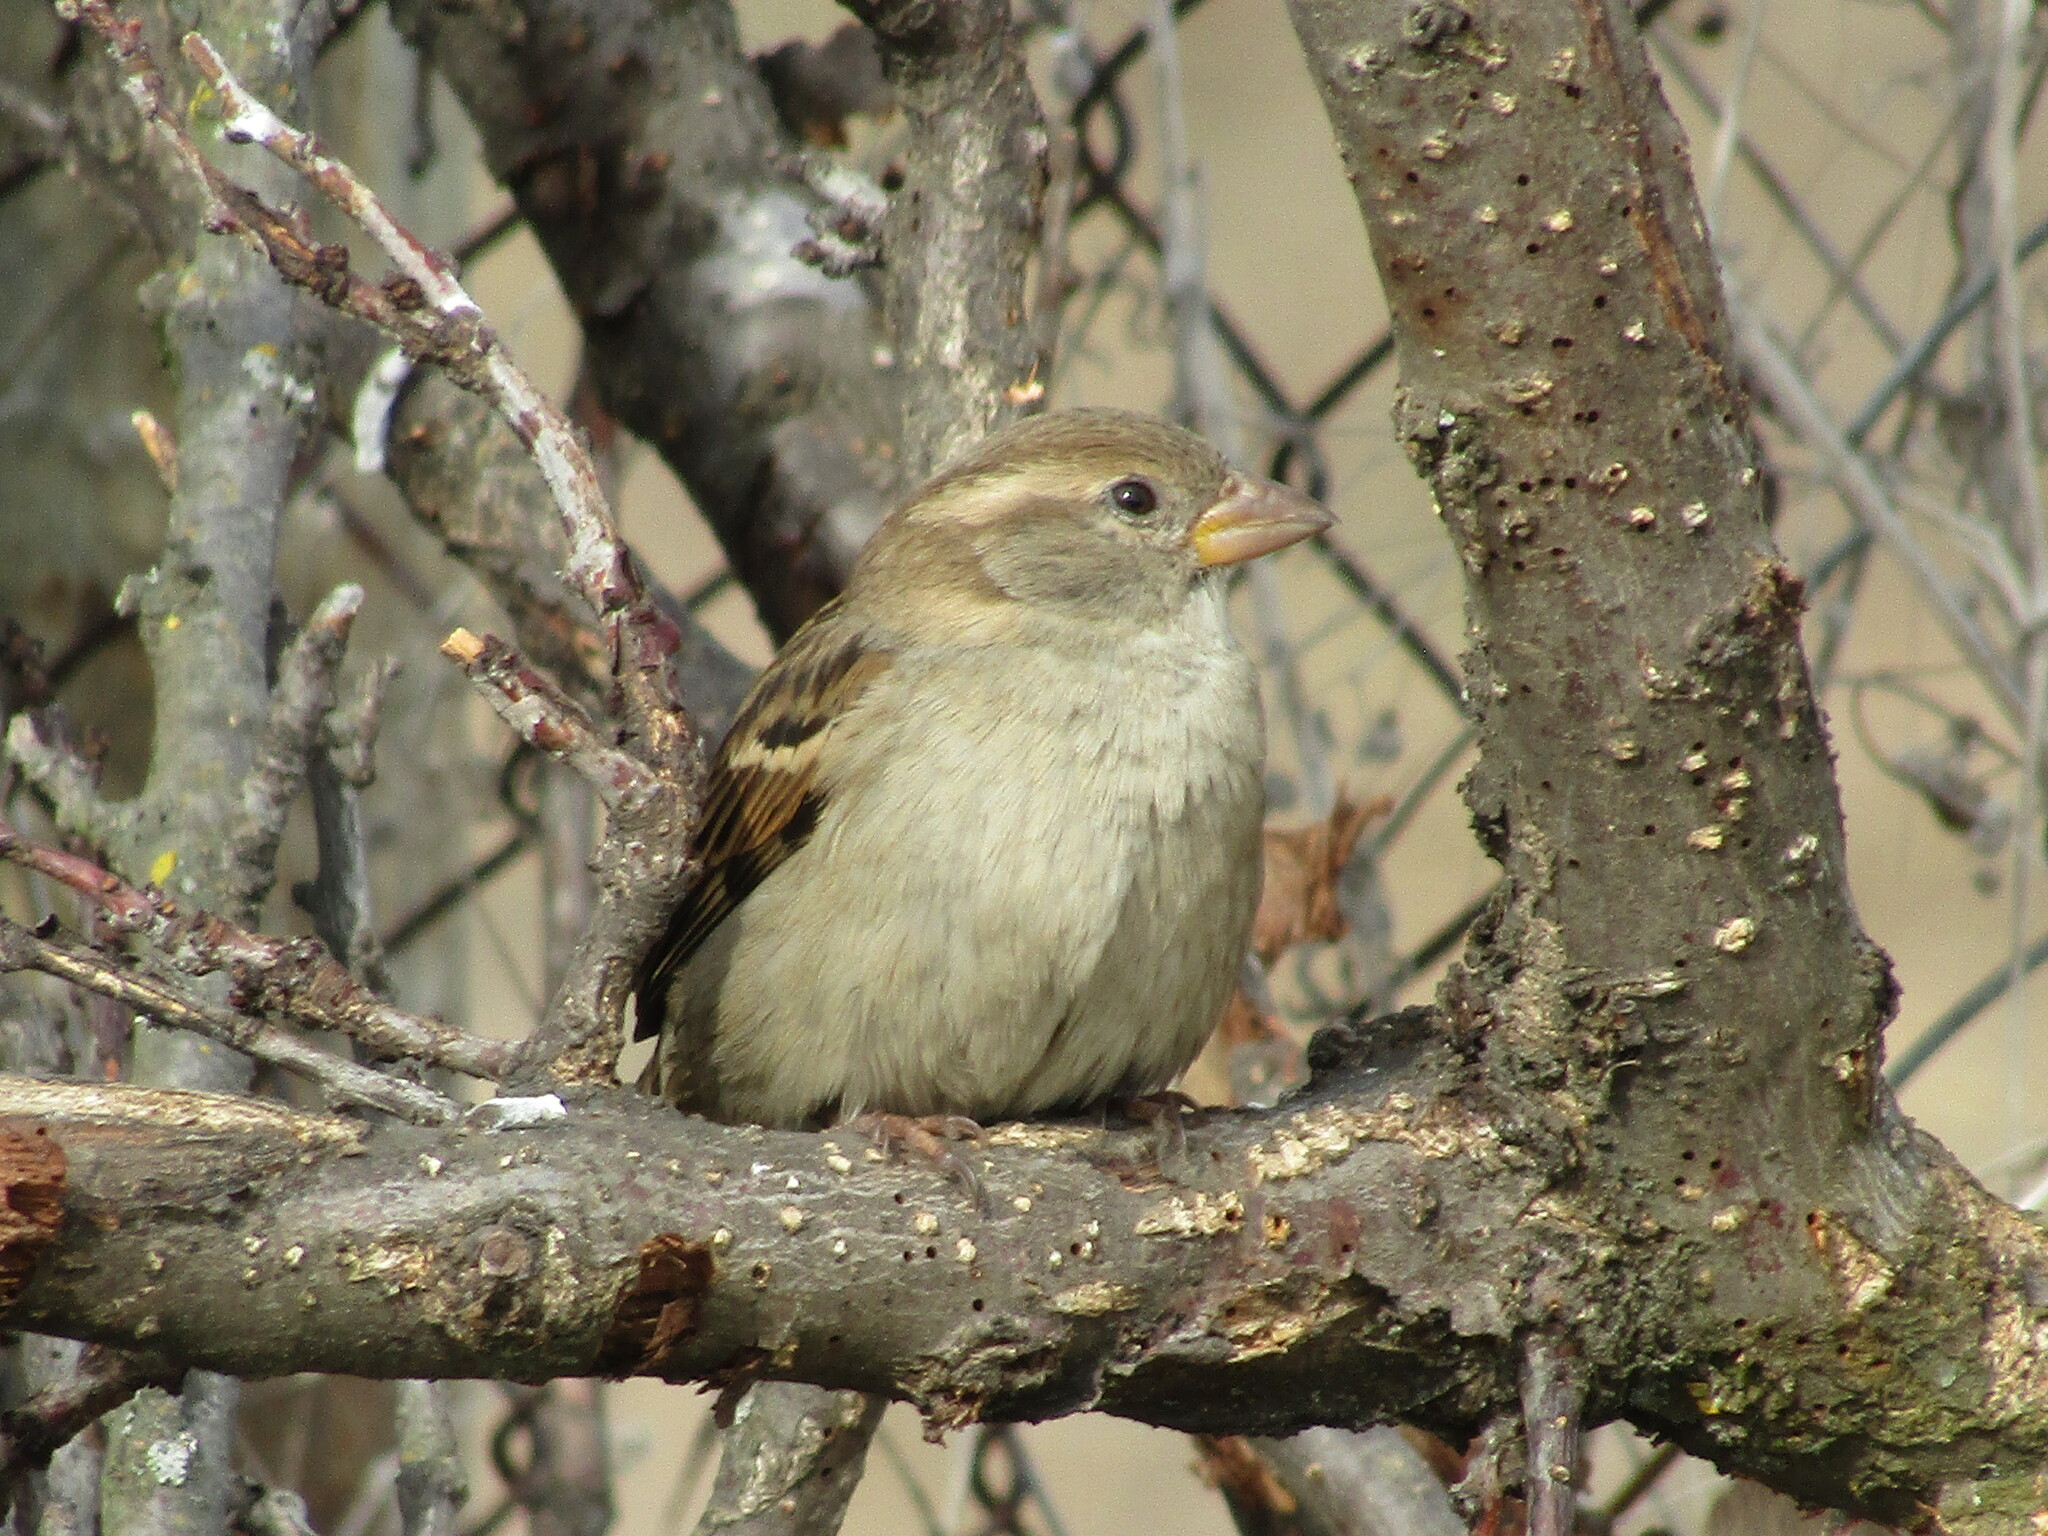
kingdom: Animalia
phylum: Chordata
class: Aves
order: Passeriformes
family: Passeridae
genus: Passer
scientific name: Passer domesticus
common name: House sparrow
